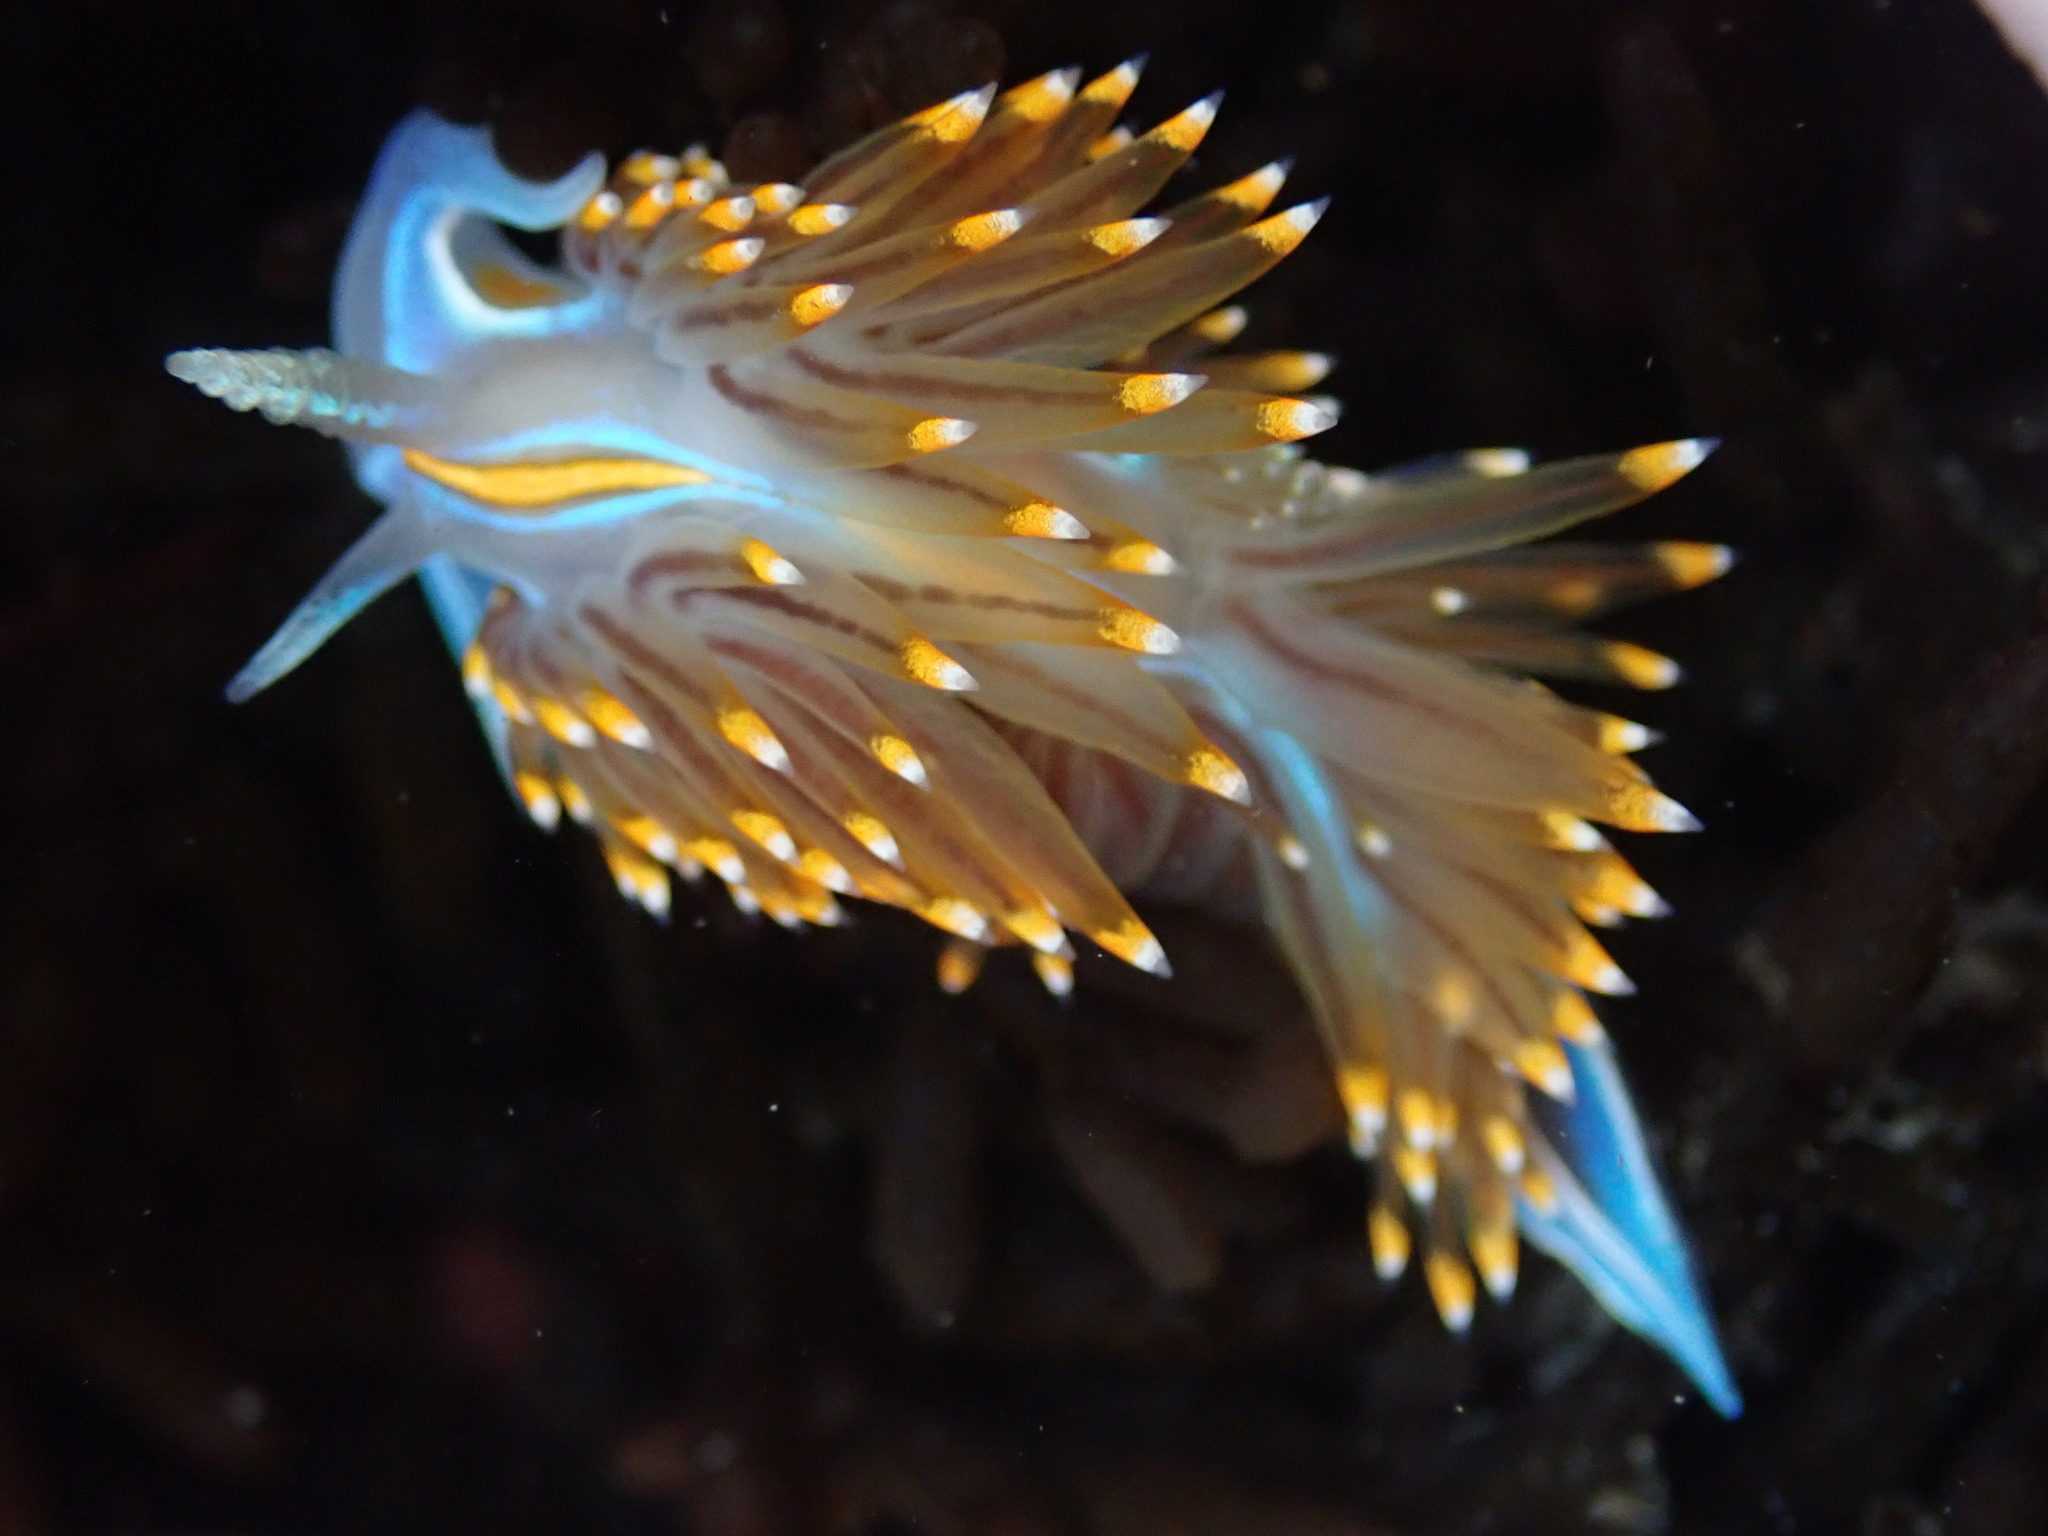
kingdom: Animalia
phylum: Mollusca
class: Gastropoda
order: Nudibranchia
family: Myrrhinidae
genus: Hermissenda
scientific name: Hermissenda opalescens
